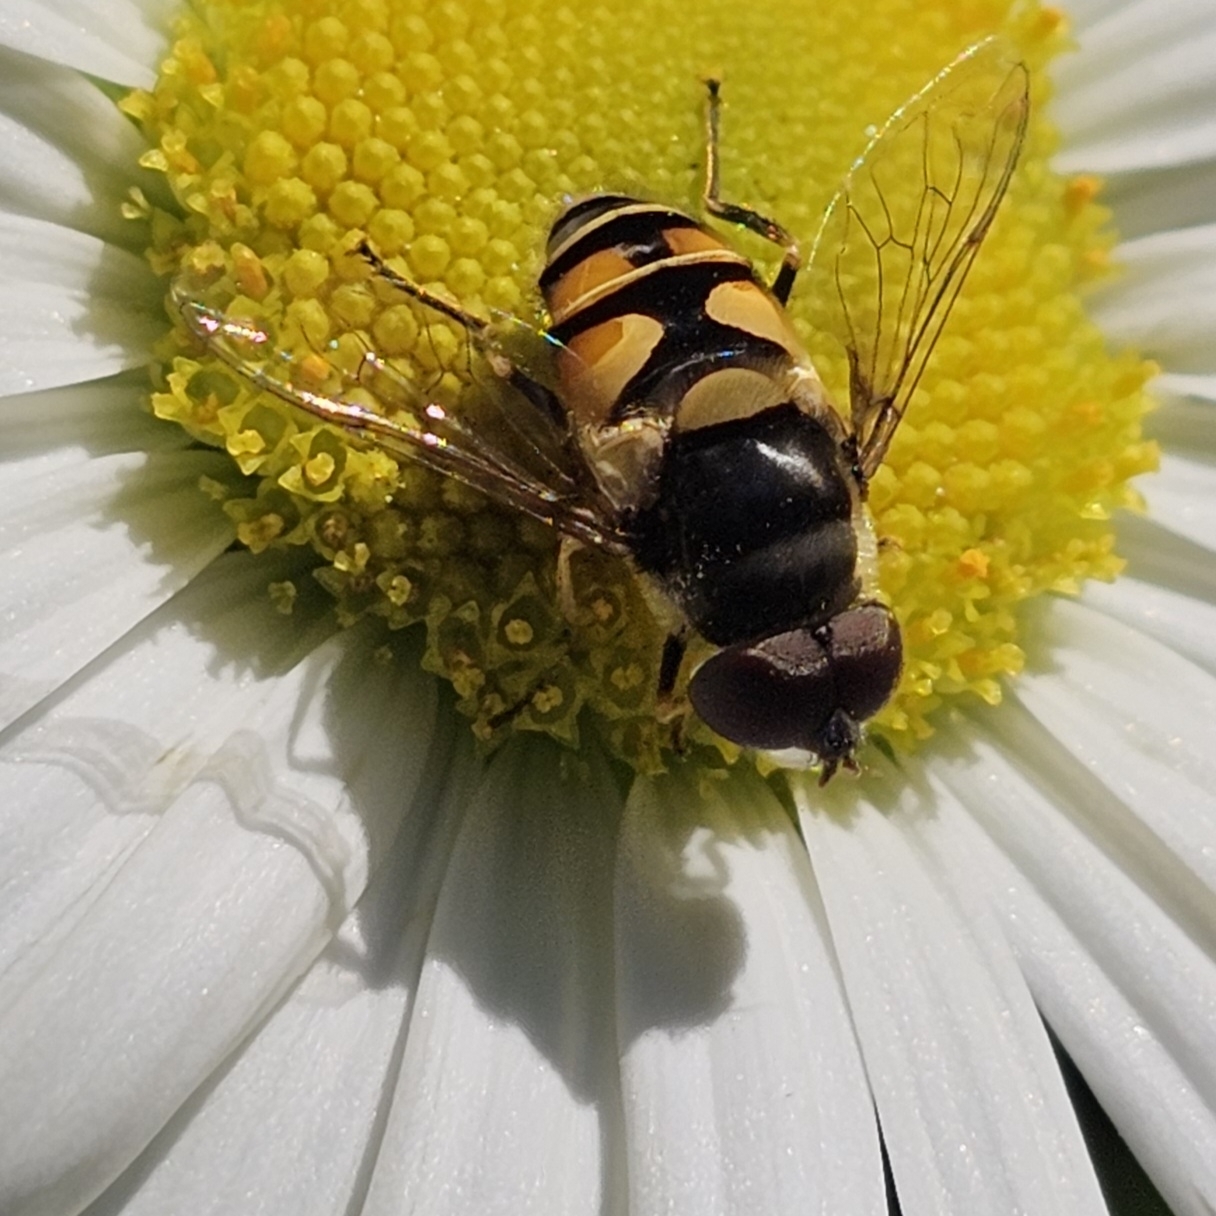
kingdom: Animalia
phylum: Arthropoda
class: Insecta
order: Diptera
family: Syrphidae
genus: Eristalis
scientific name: Eristalis transversa
